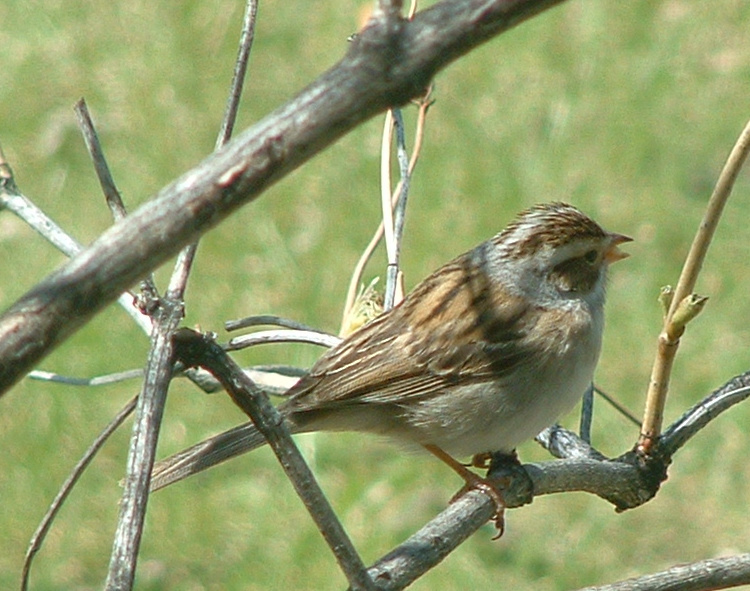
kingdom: Animalia
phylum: Chordata
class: Aves
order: Passeriformes
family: Passerellidae
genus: Spizella
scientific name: Spizella pallida
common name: Clay-colored sparrow
